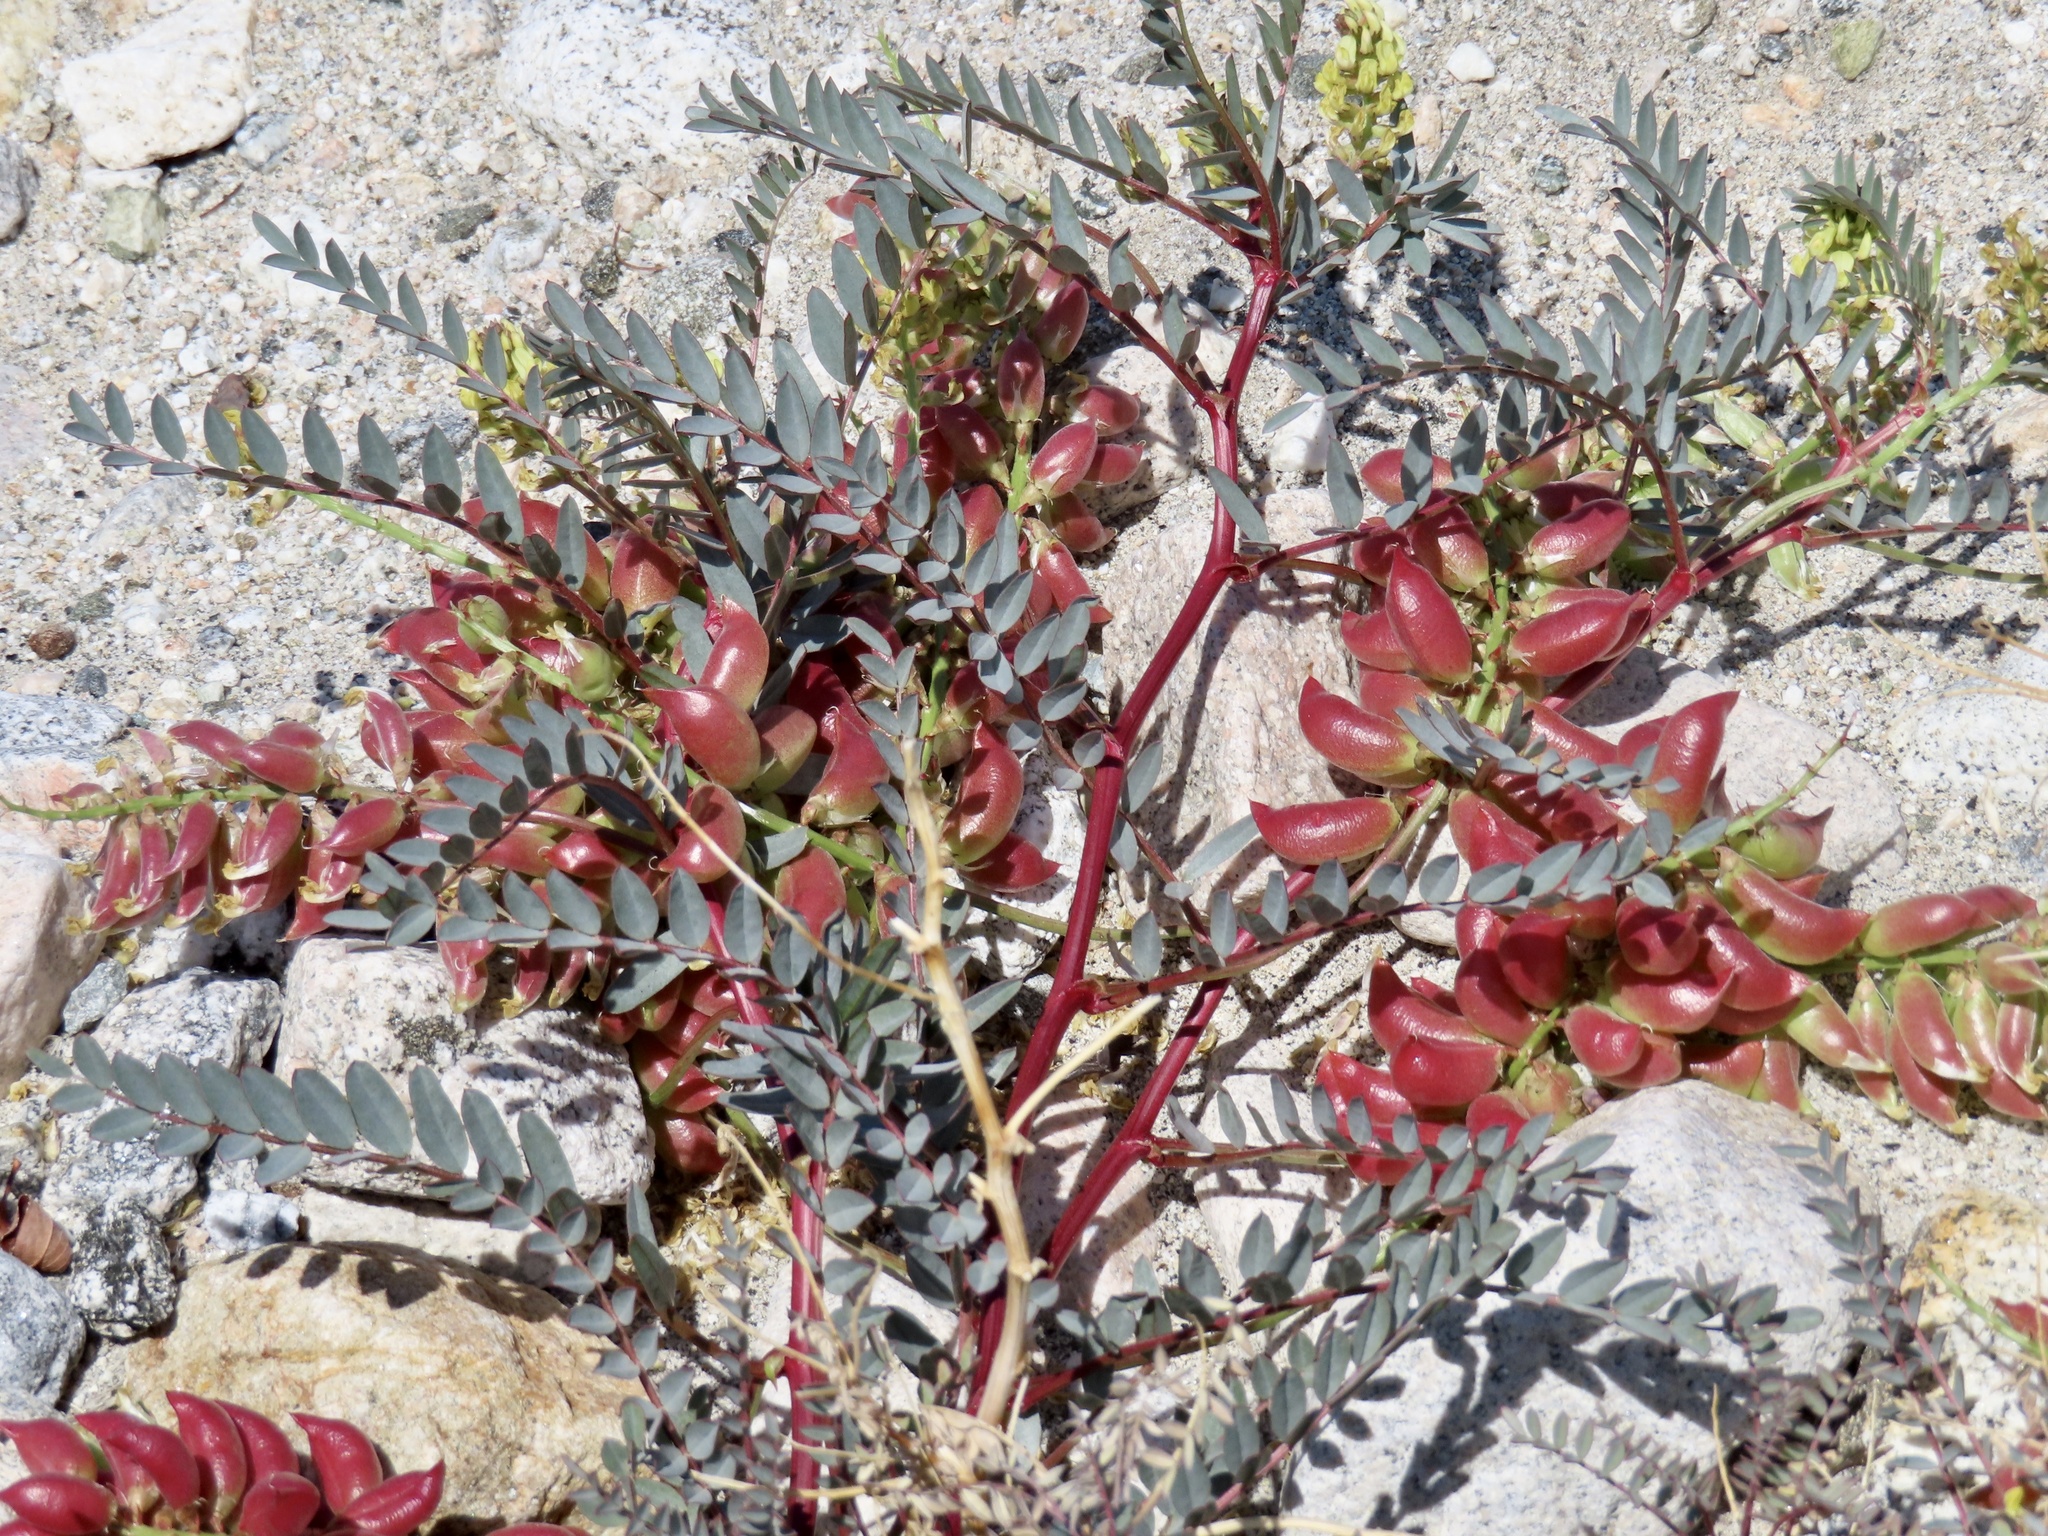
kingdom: Plantae
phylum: Tracheophyta
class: Magnoliopsida
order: Fabales
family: Fabaceae
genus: Astragalus
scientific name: Astragalus douglasii
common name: Jacumba milkvetch
